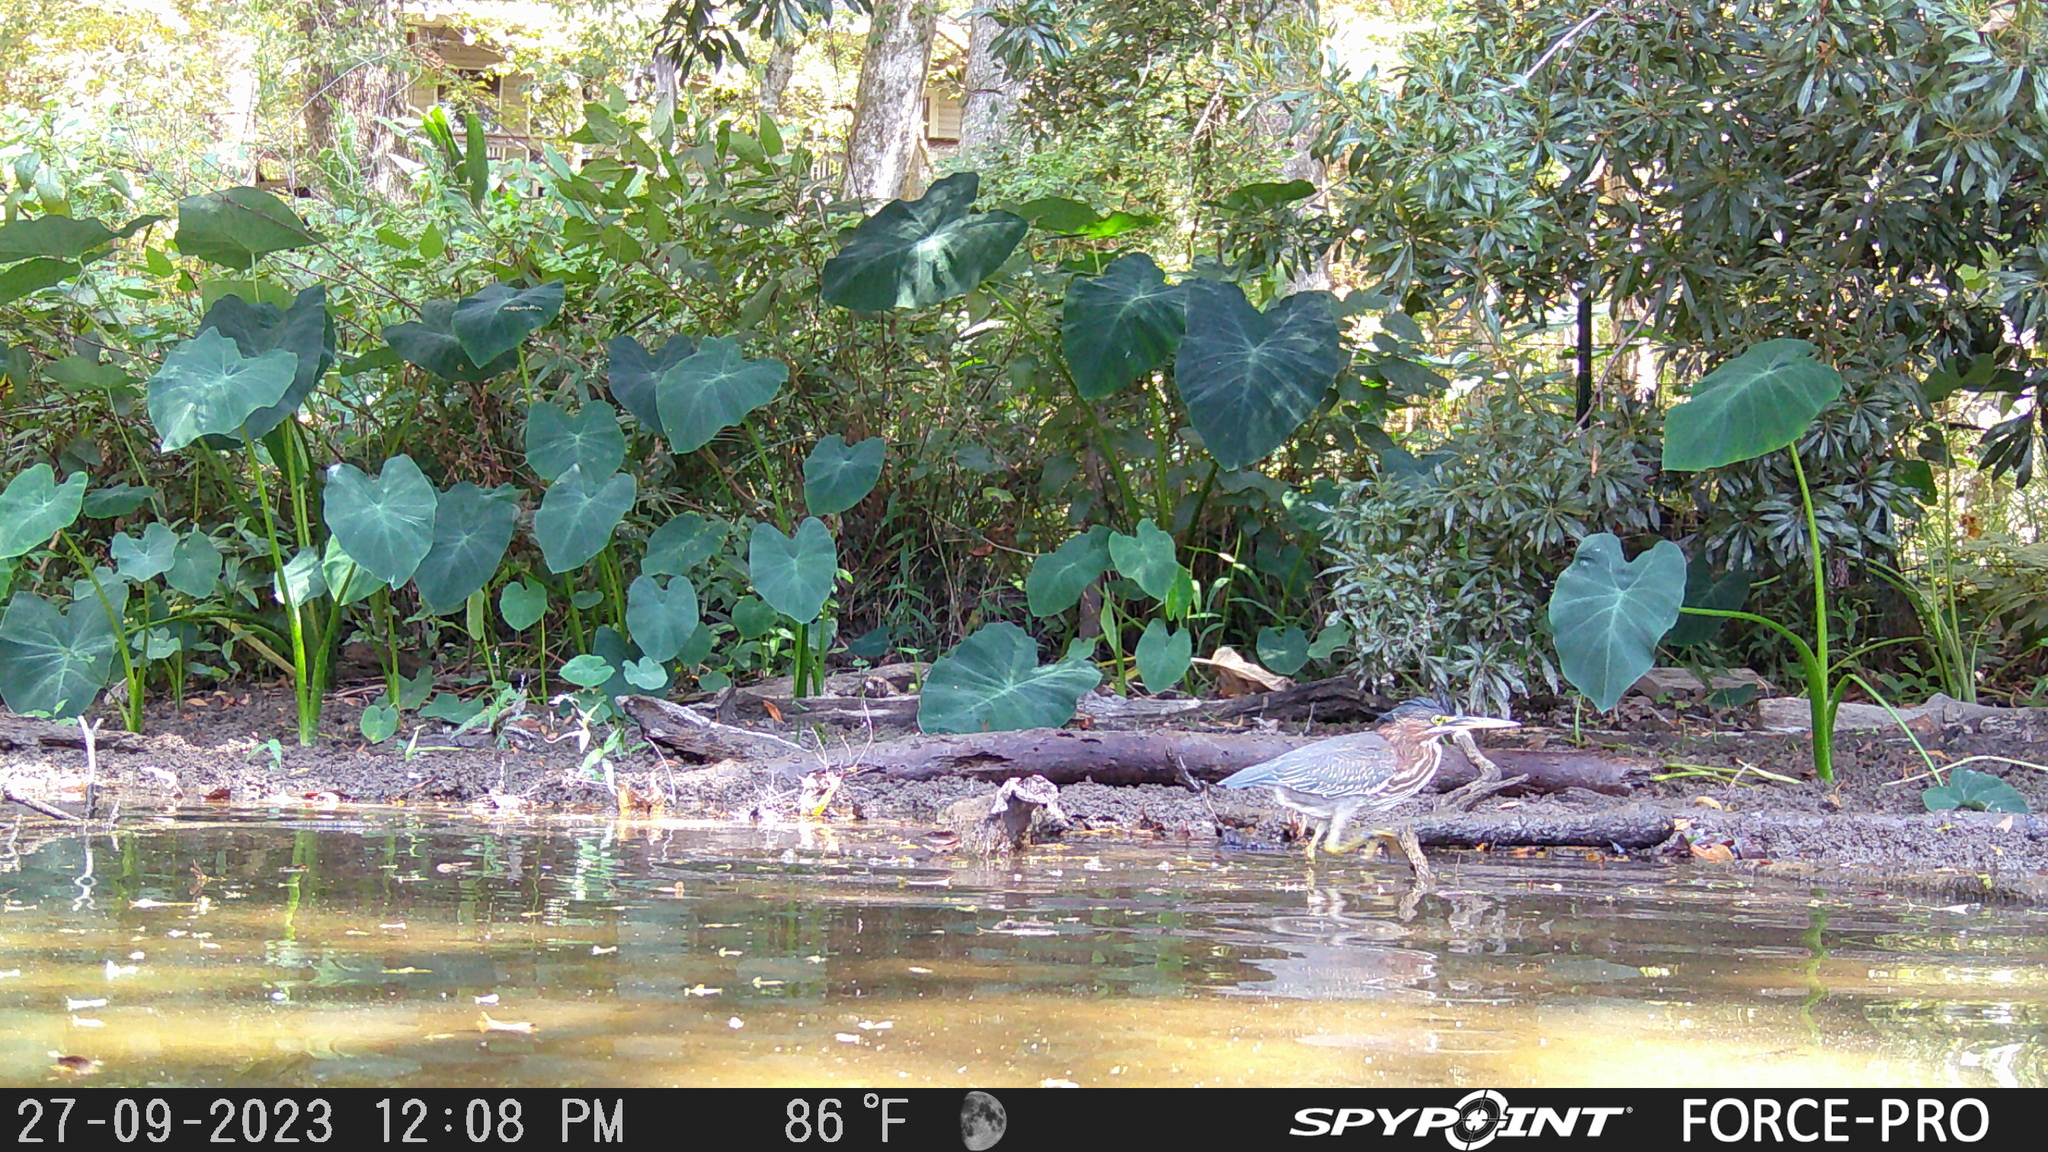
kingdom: Animalia
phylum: Chordata
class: Aves
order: Pelecaniformes
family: Ardeidae
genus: Butorides
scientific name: Butorides virescens
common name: Green heron
